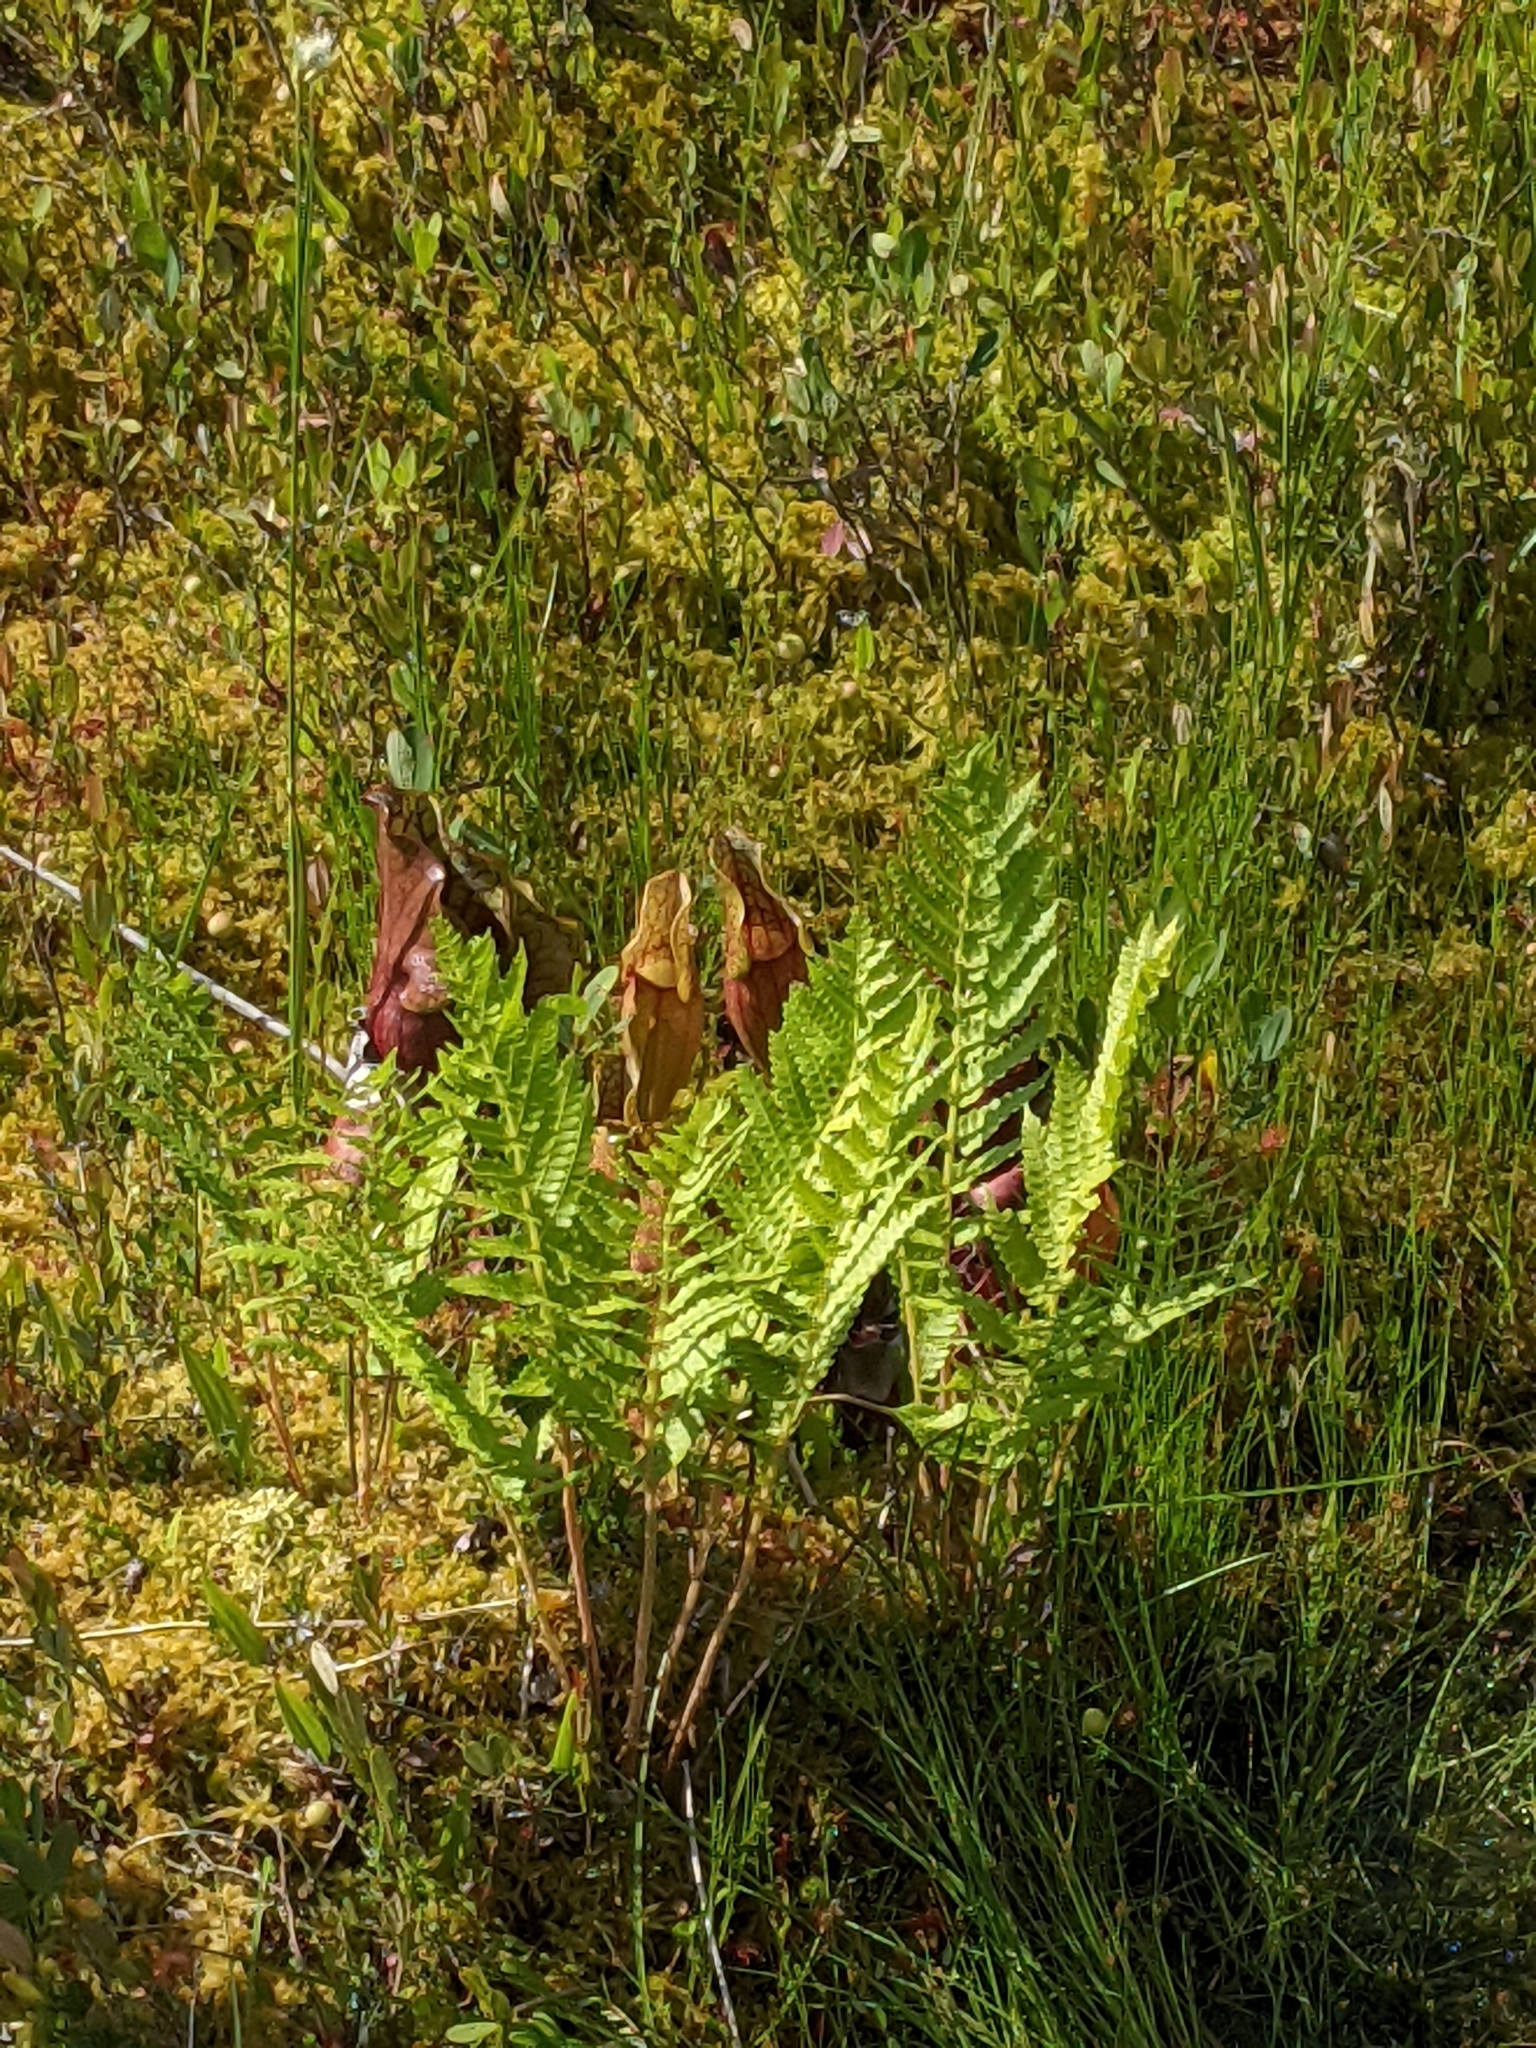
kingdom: Plantae
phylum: Tracheophyta
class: Polypodiopsida
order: Osmundales
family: Osmundaceae
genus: Osmundastrum
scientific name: Osmundastrum cinnamomeum
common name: Cinnamon fern
